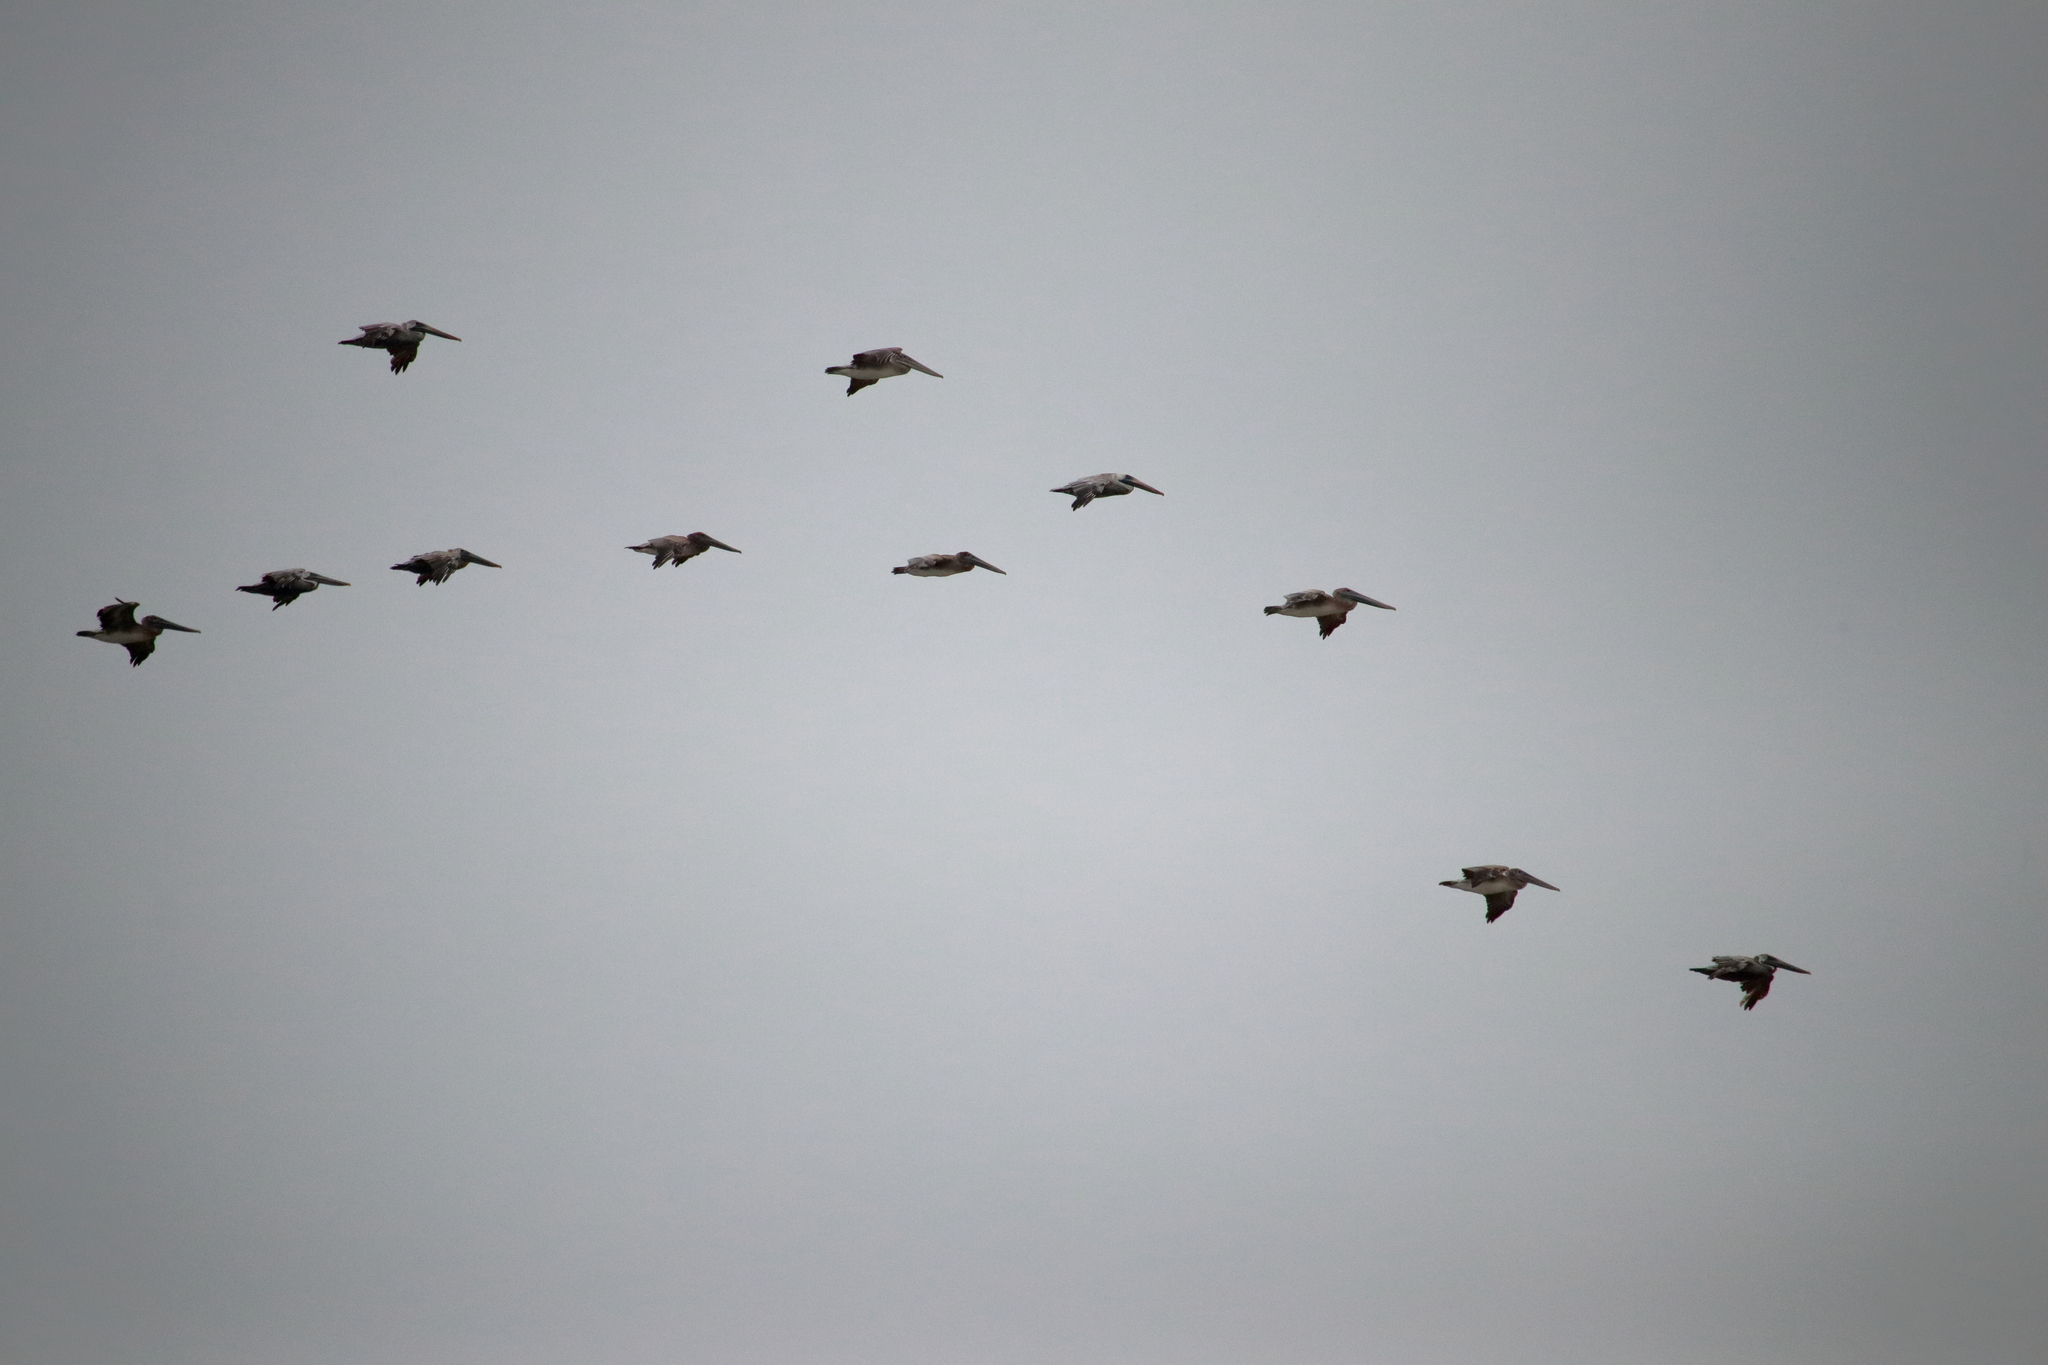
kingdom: Animalia
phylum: Chordata
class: Aves
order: Pelecaniformes
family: Pelecanidae
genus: Pelecanus
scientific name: Pelecanus occidentalis
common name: Brown pelican
